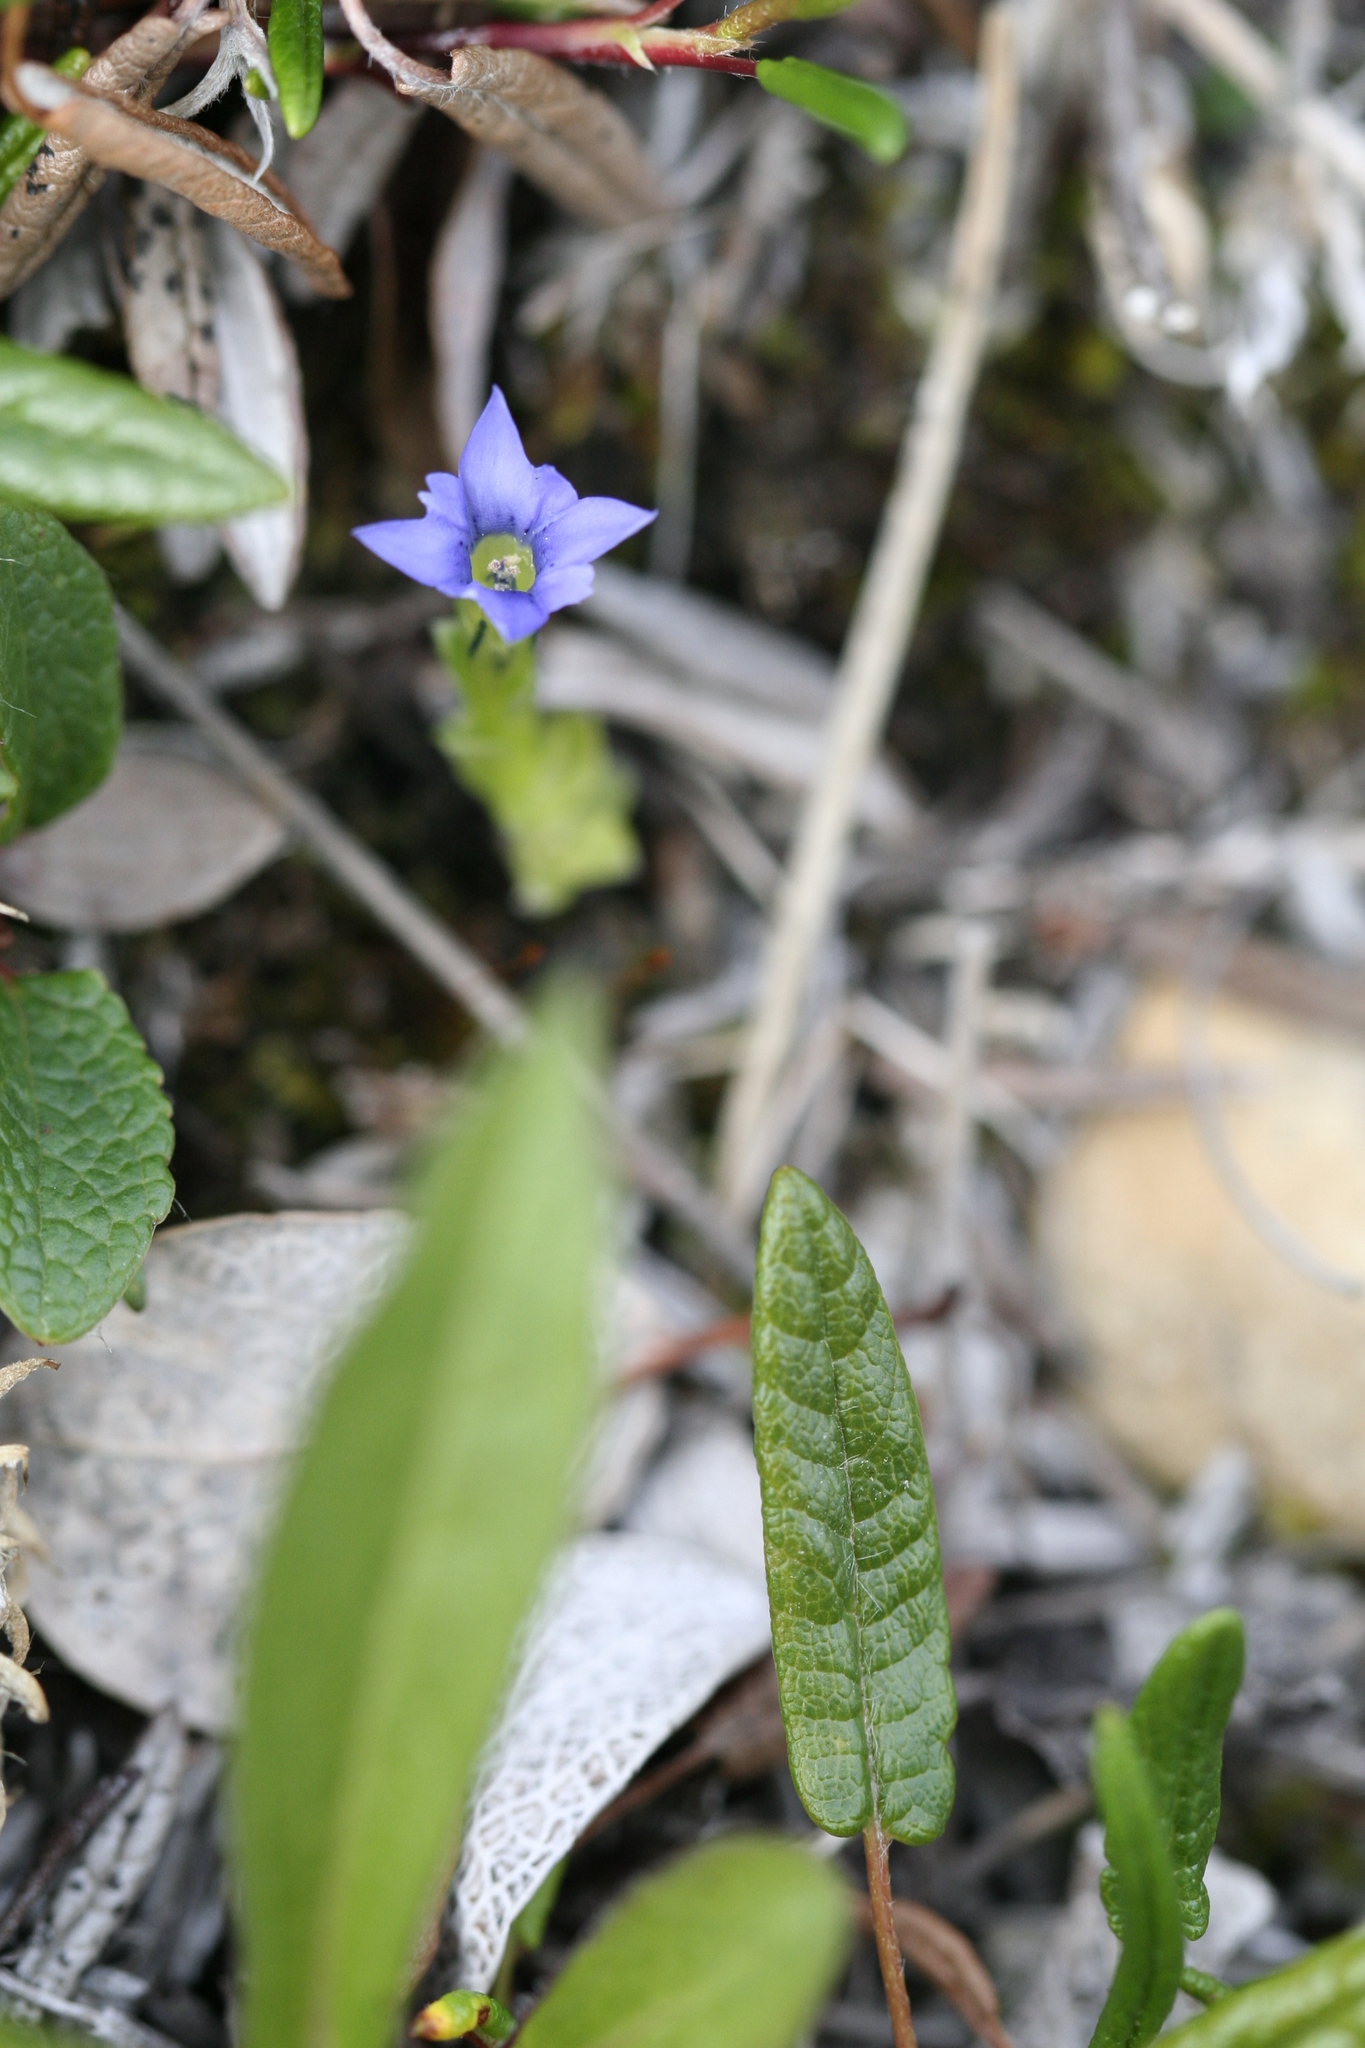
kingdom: Plantae
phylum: Tracheophyta
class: Magnoliopsida
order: Gentianales
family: Gentianaceae
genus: Gentiana
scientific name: Gentiana prostrata
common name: Moss gentian
